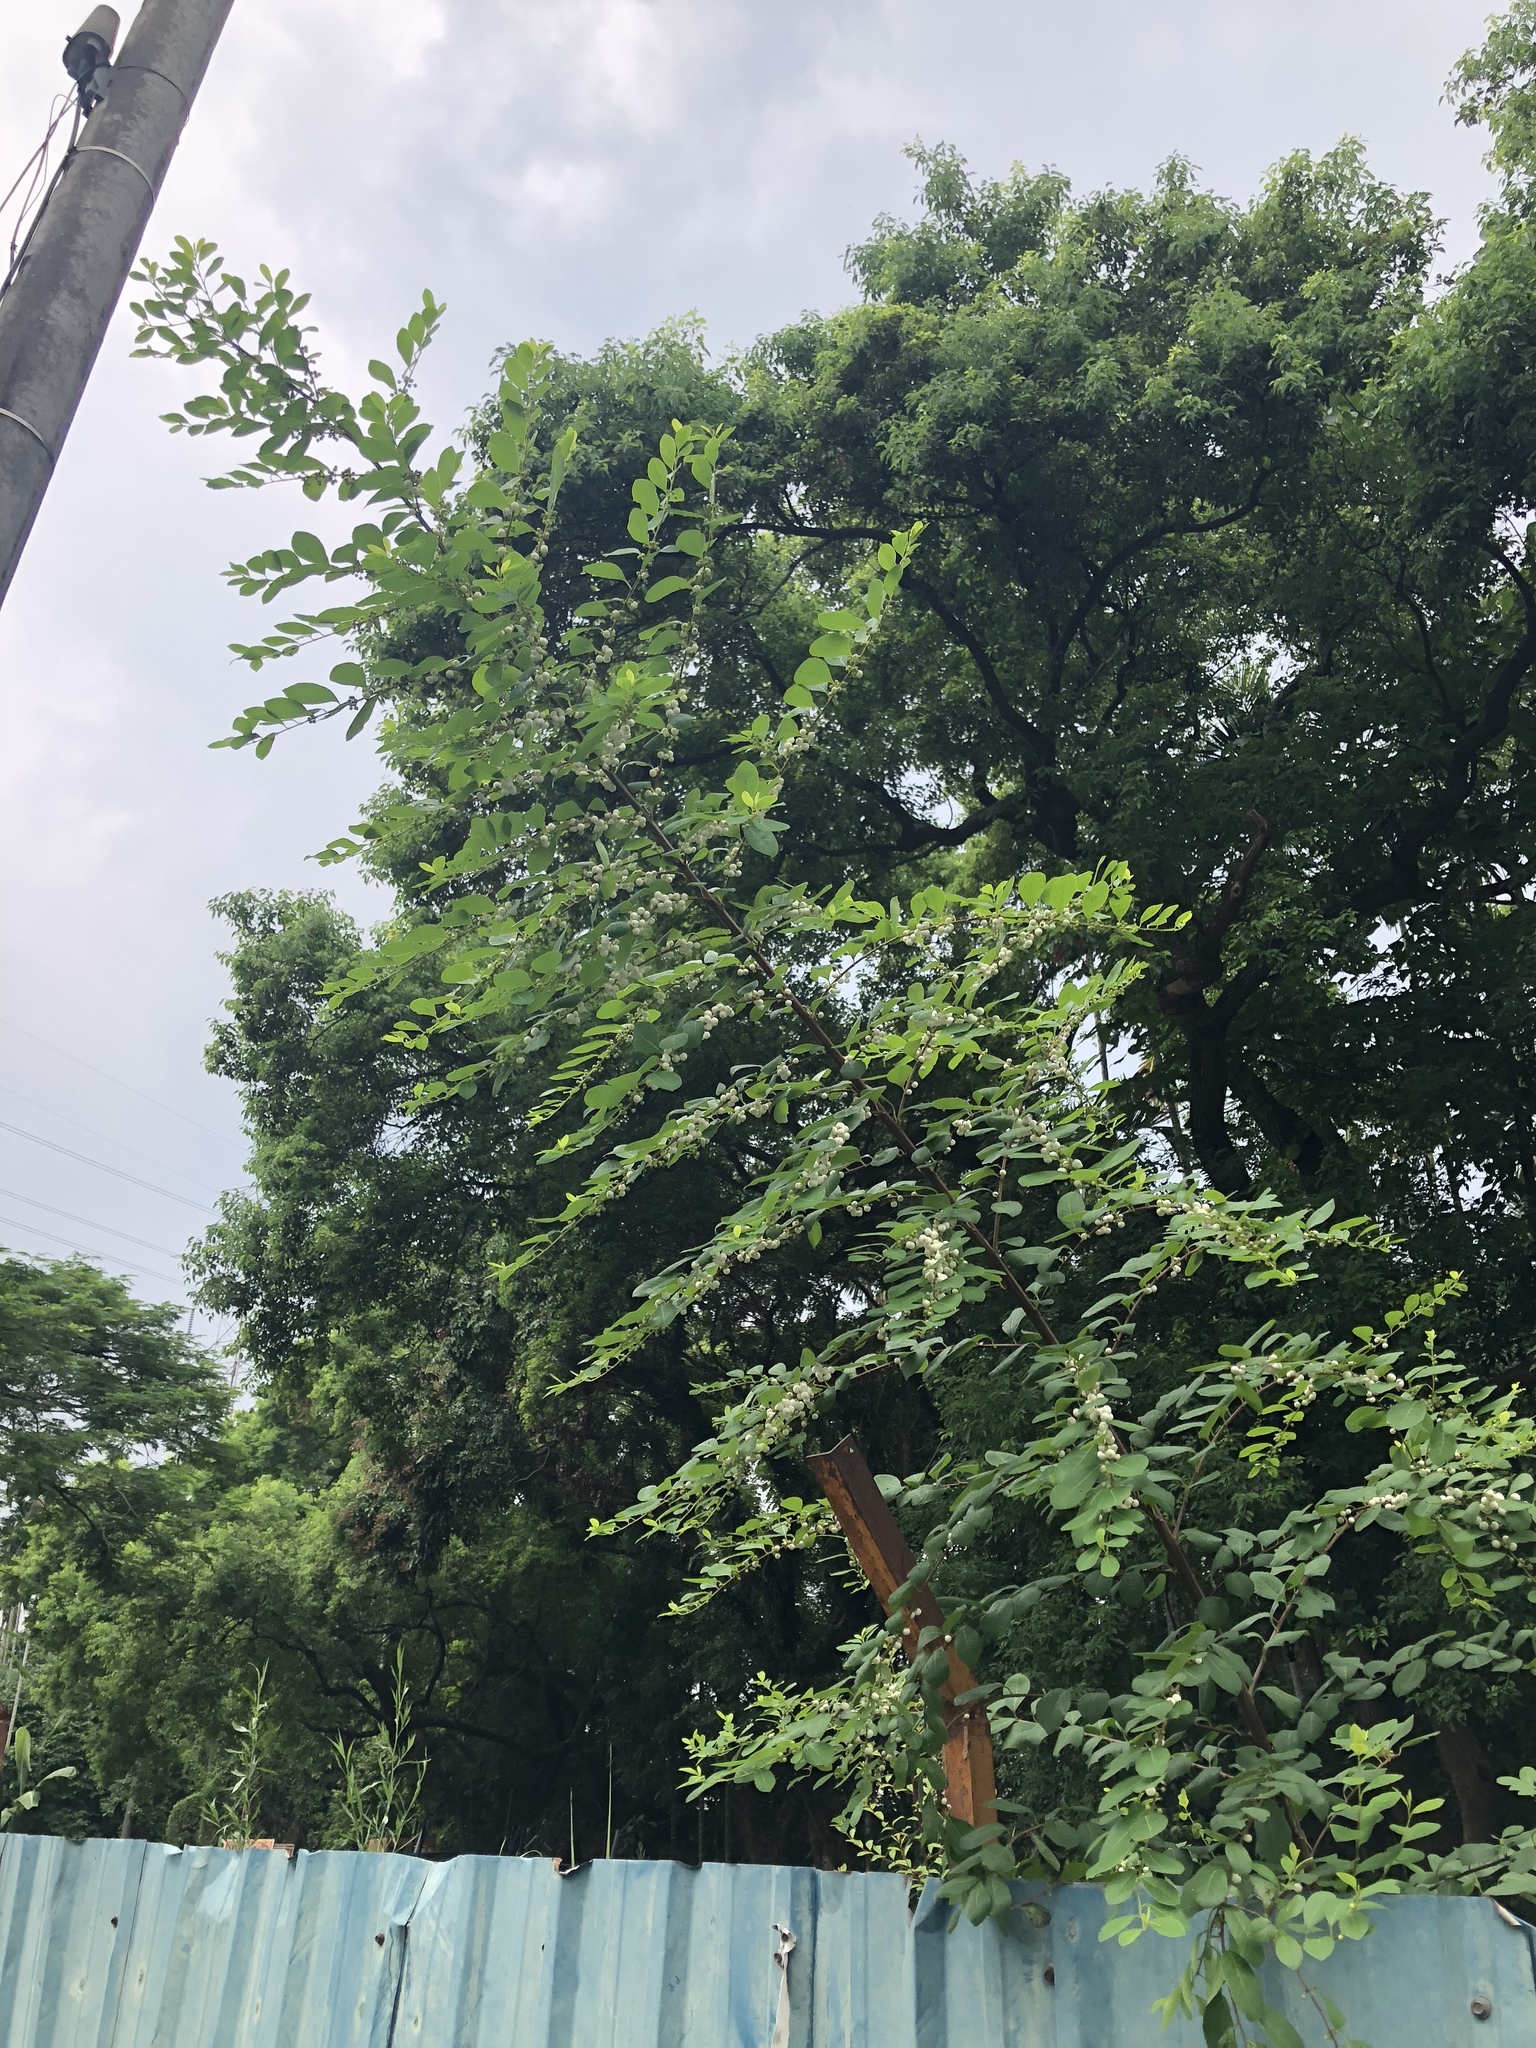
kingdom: Plantae
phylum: Tracheophyta
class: Magnoliopsida
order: Malpighiales
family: Phyllanthaceae
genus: Flueggea
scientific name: Flueggea virosa
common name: Common bushweed
